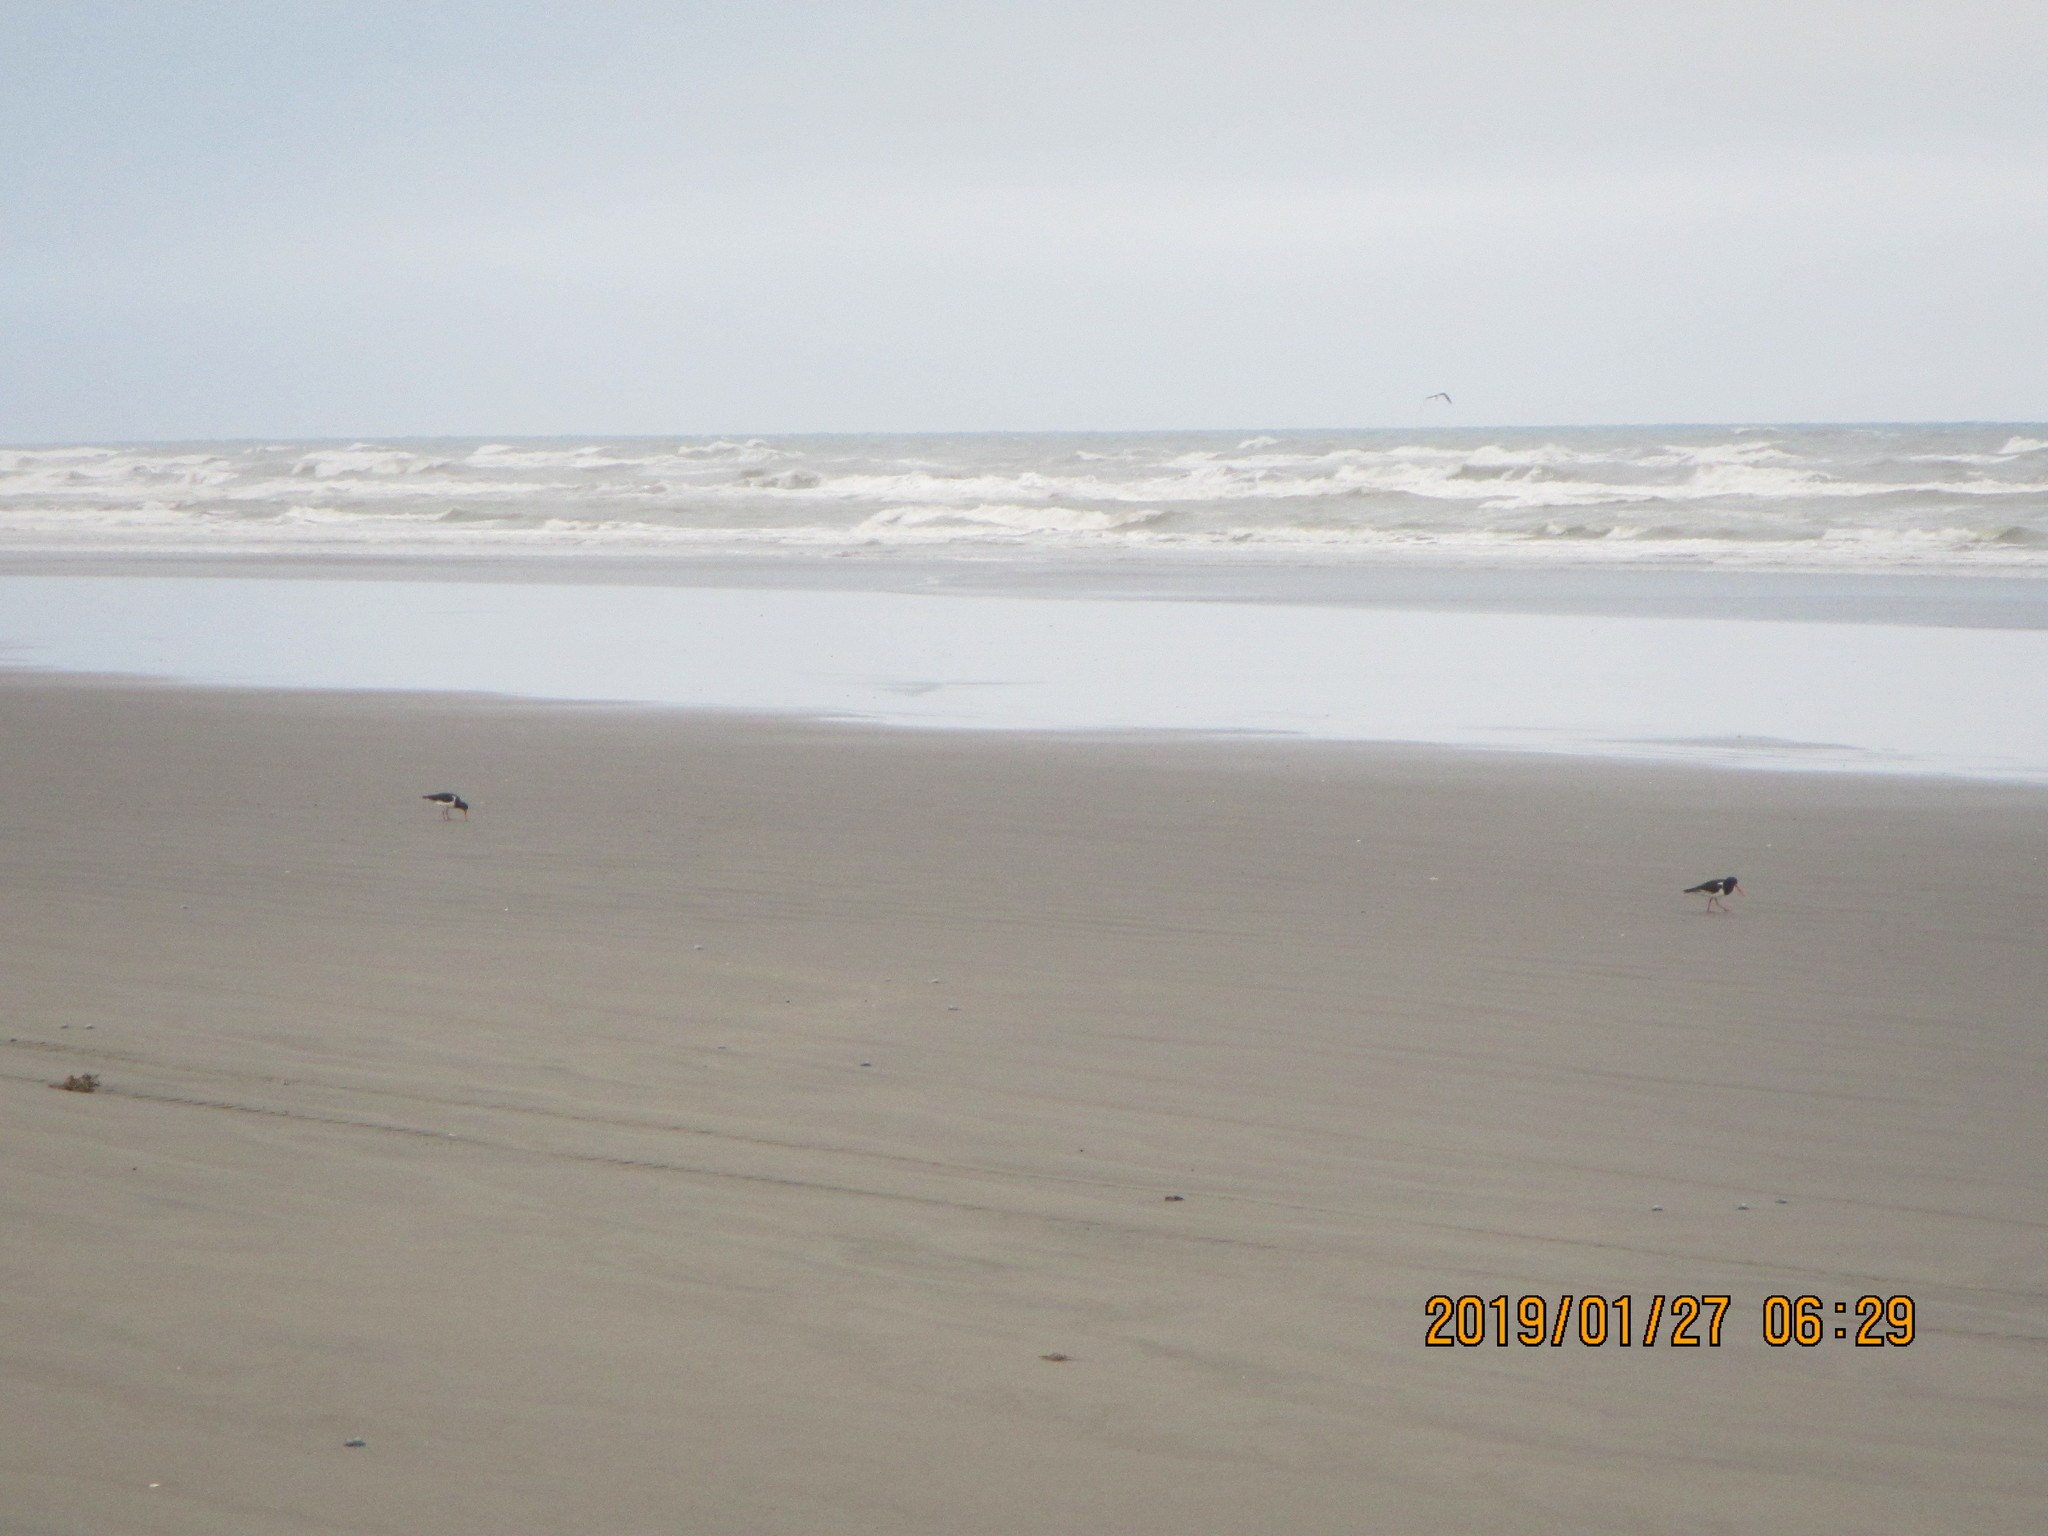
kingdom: Animalia
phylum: Chordata
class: Aves
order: Charadriiformes
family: Haematopodidae
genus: Haematopus
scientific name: Haematopus finschi
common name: South island oystercatcher
